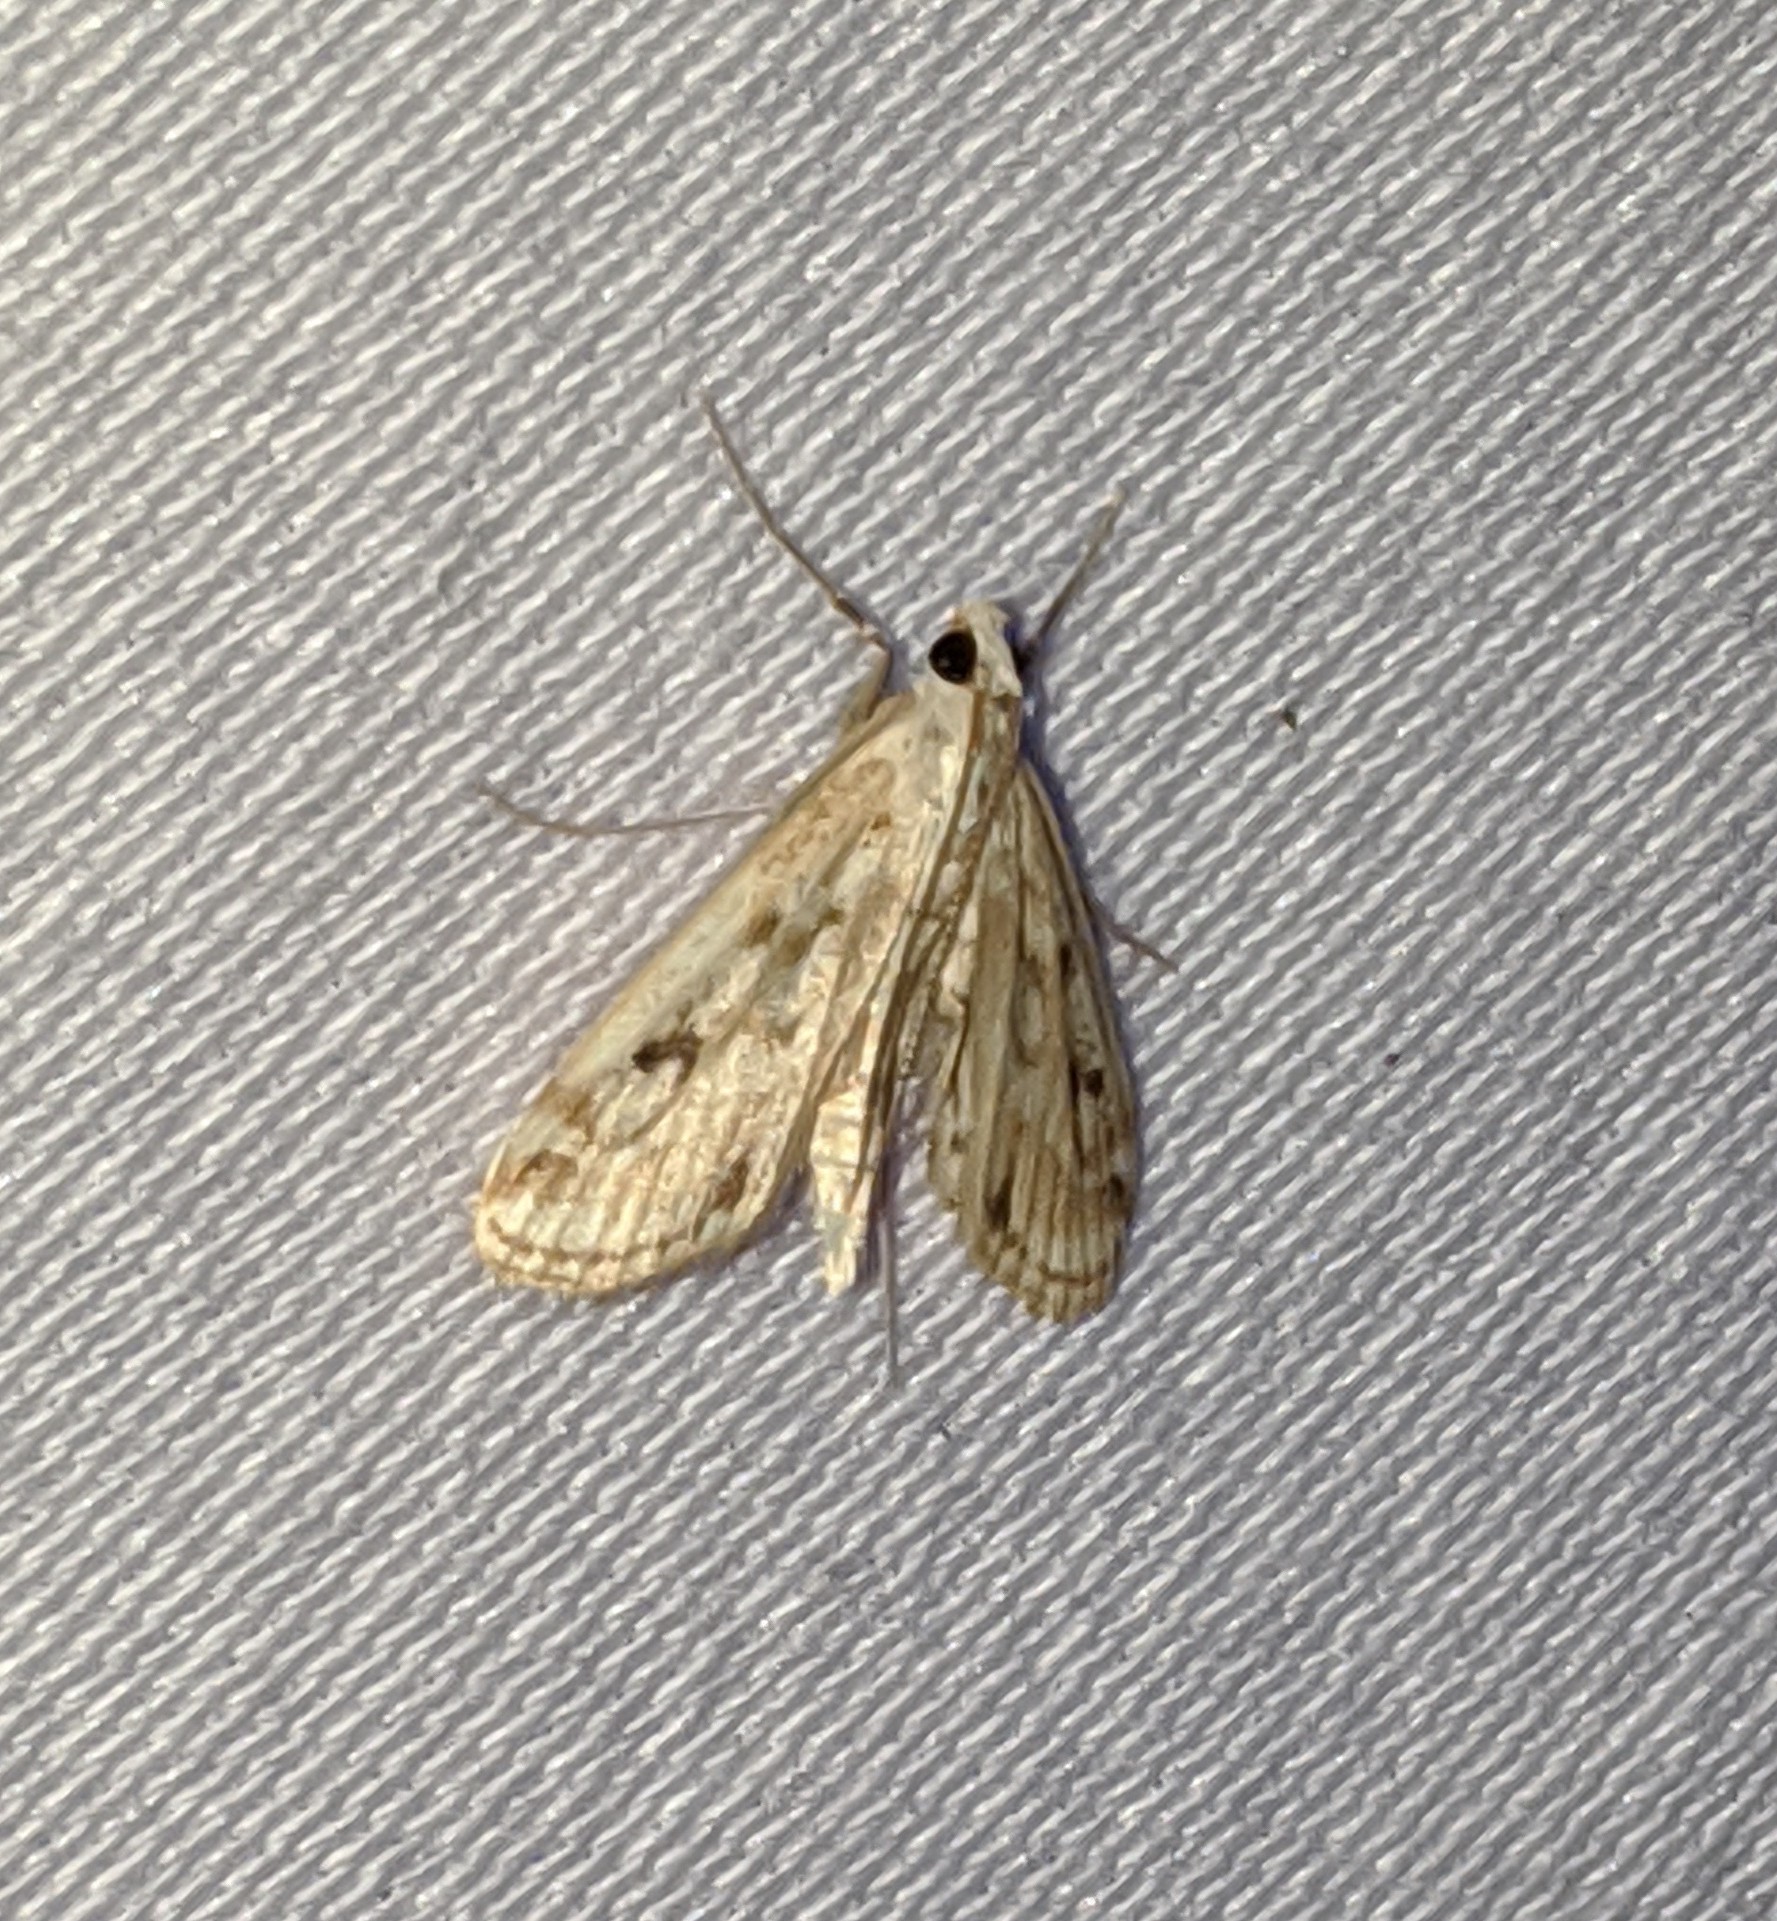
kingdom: Animalia
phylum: Arthropoda
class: Insecta
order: Lepidoptera
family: Crambidae
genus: Parapoynx
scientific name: Parapoynx allionealis
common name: Bladderwort casemaker
